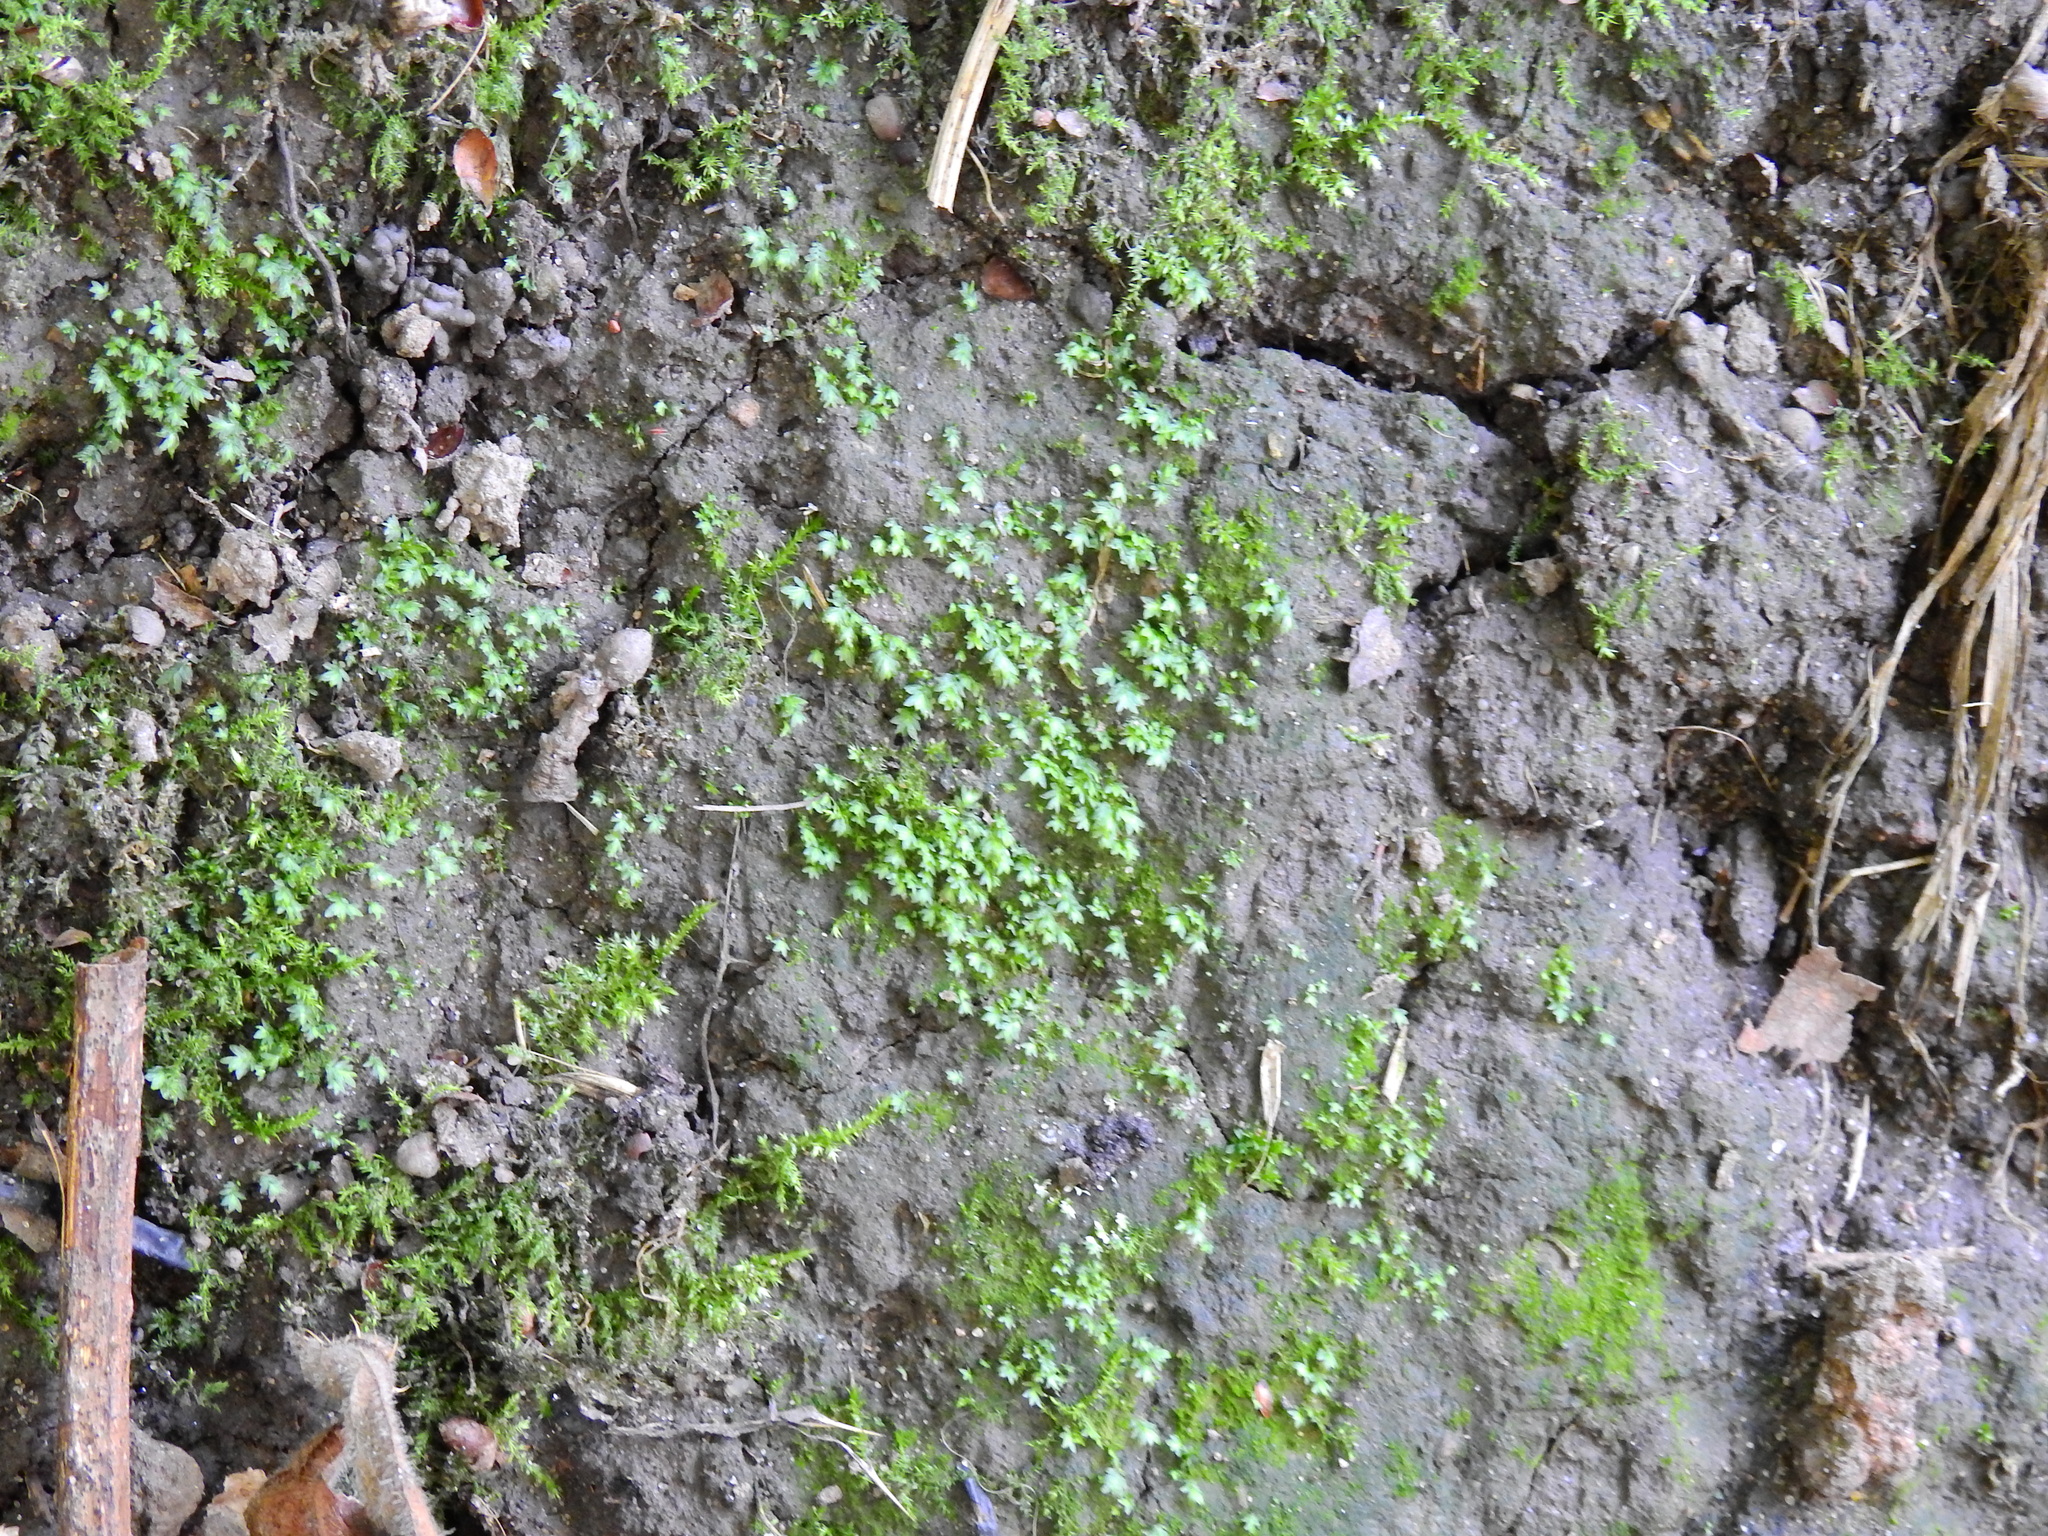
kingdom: Plantae
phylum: Bryophyta
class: Bryopsida
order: Dicranales
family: Fissidentaceae
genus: Fissidens
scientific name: Fissidens bryoides
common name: Lesser pocket moss
